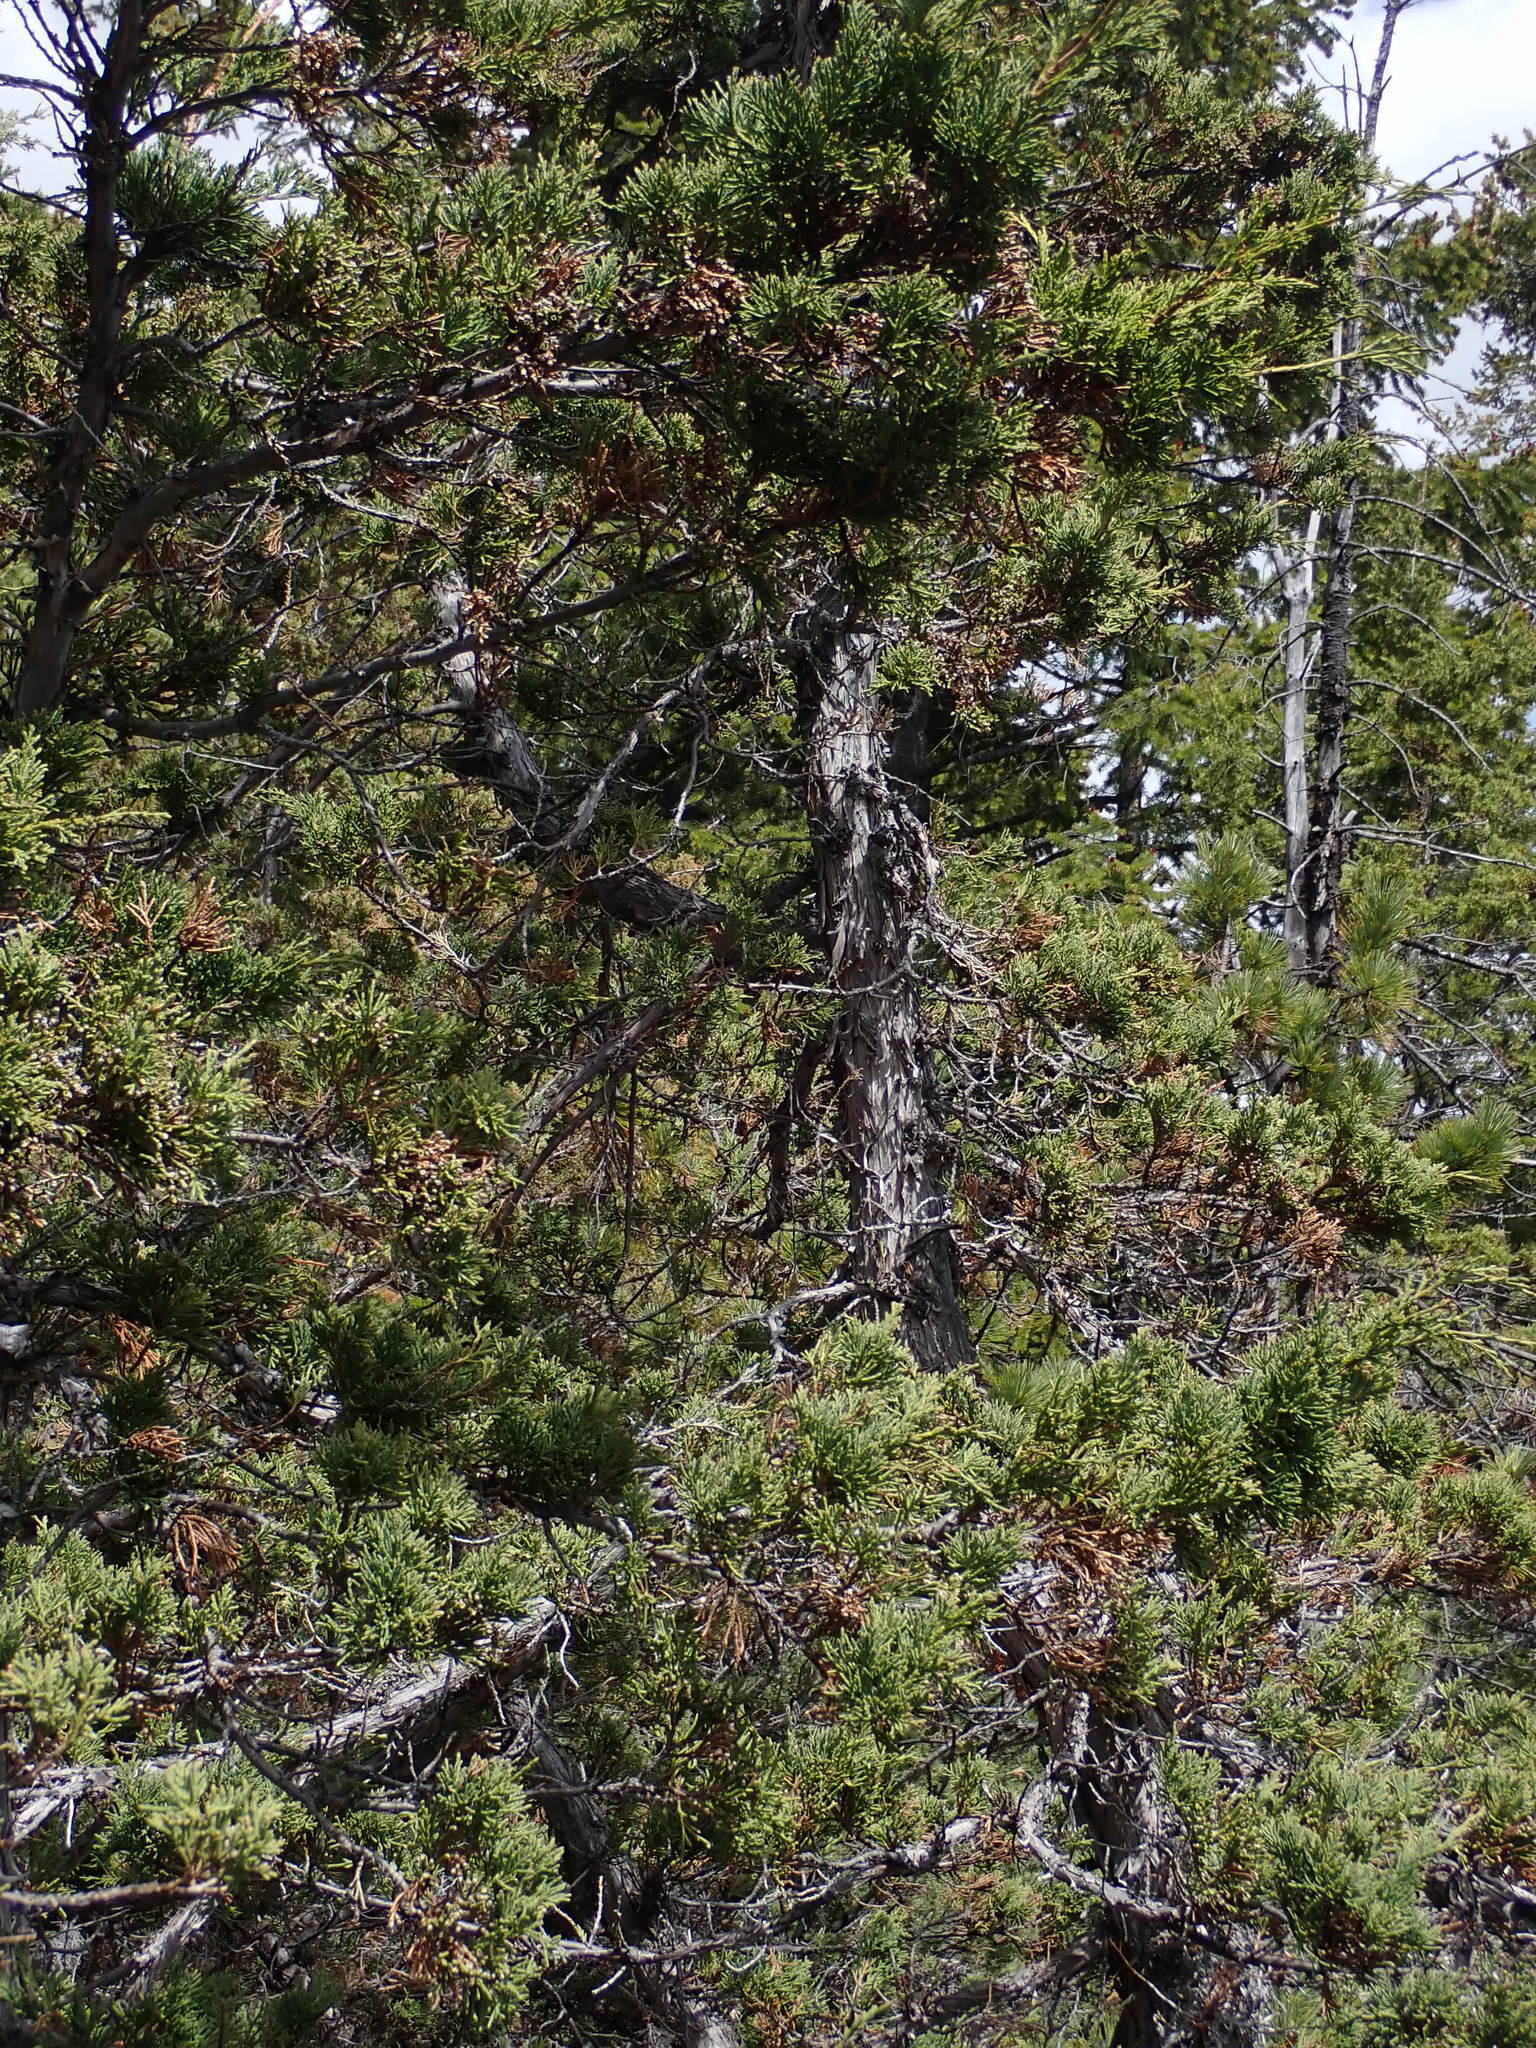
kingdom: Plantae
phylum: Tracheophyta
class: Pinopsida
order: Pinales
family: Cupressaceae
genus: Juniperus
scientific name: Juniperus scopulorum
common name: Rocky mountain juniper
